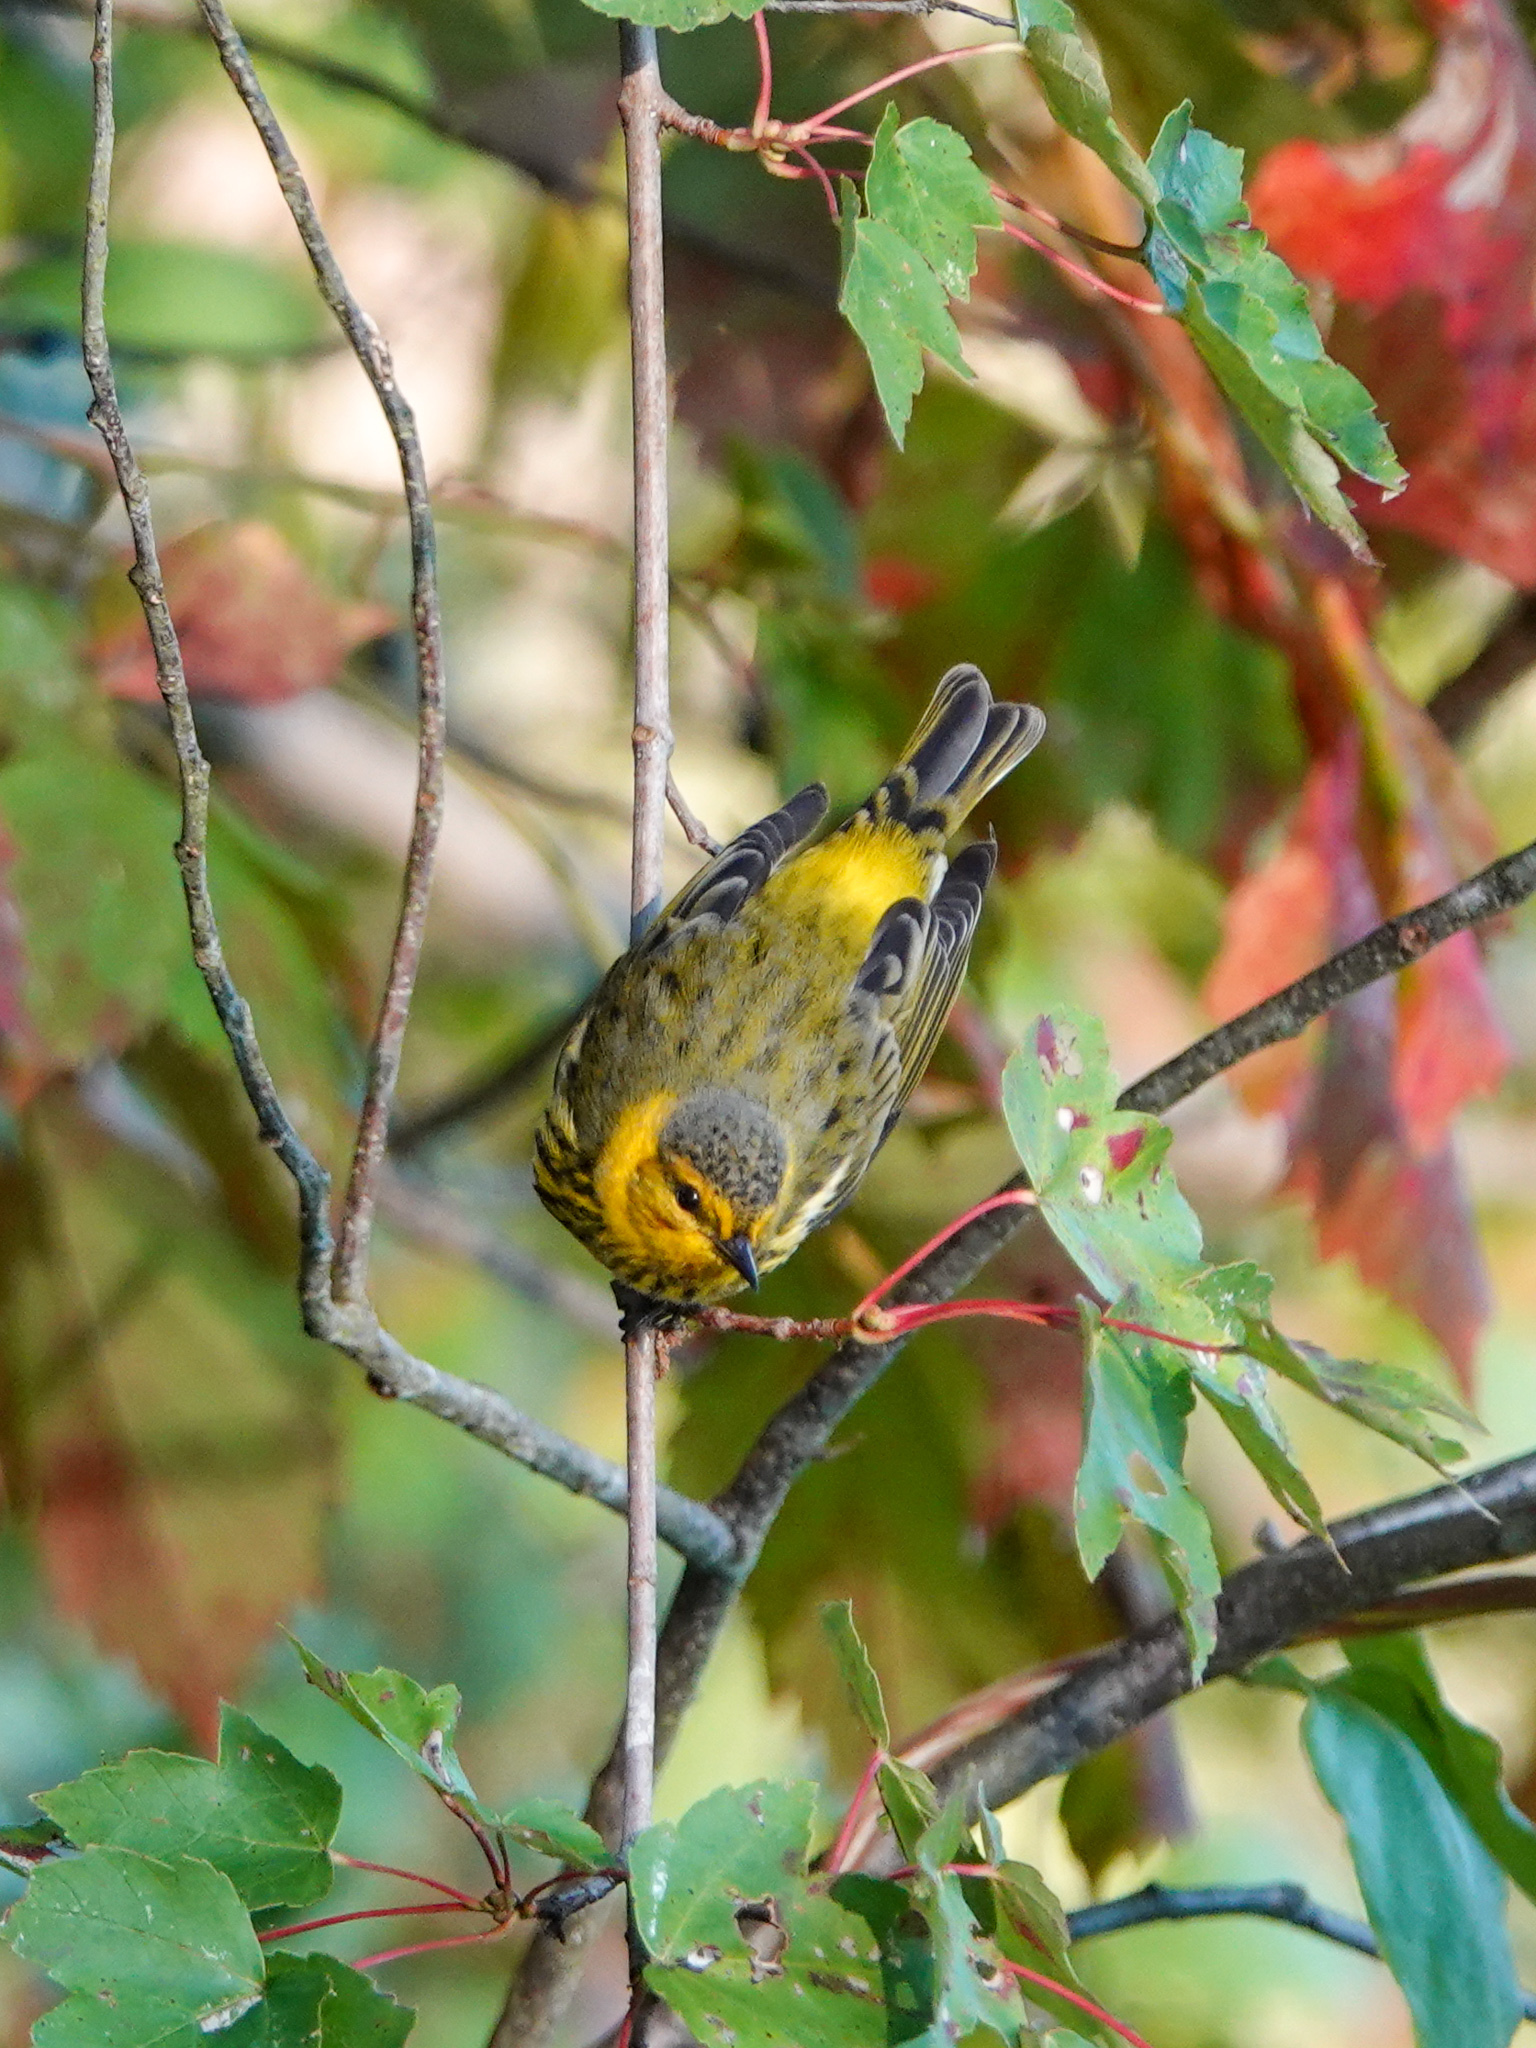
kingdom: Animalia
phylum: Chordata
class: Aves
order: Passeriformes
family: Parulidae
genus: Setophaga
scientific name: Setophaga tigrina
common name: Cape may warbler
